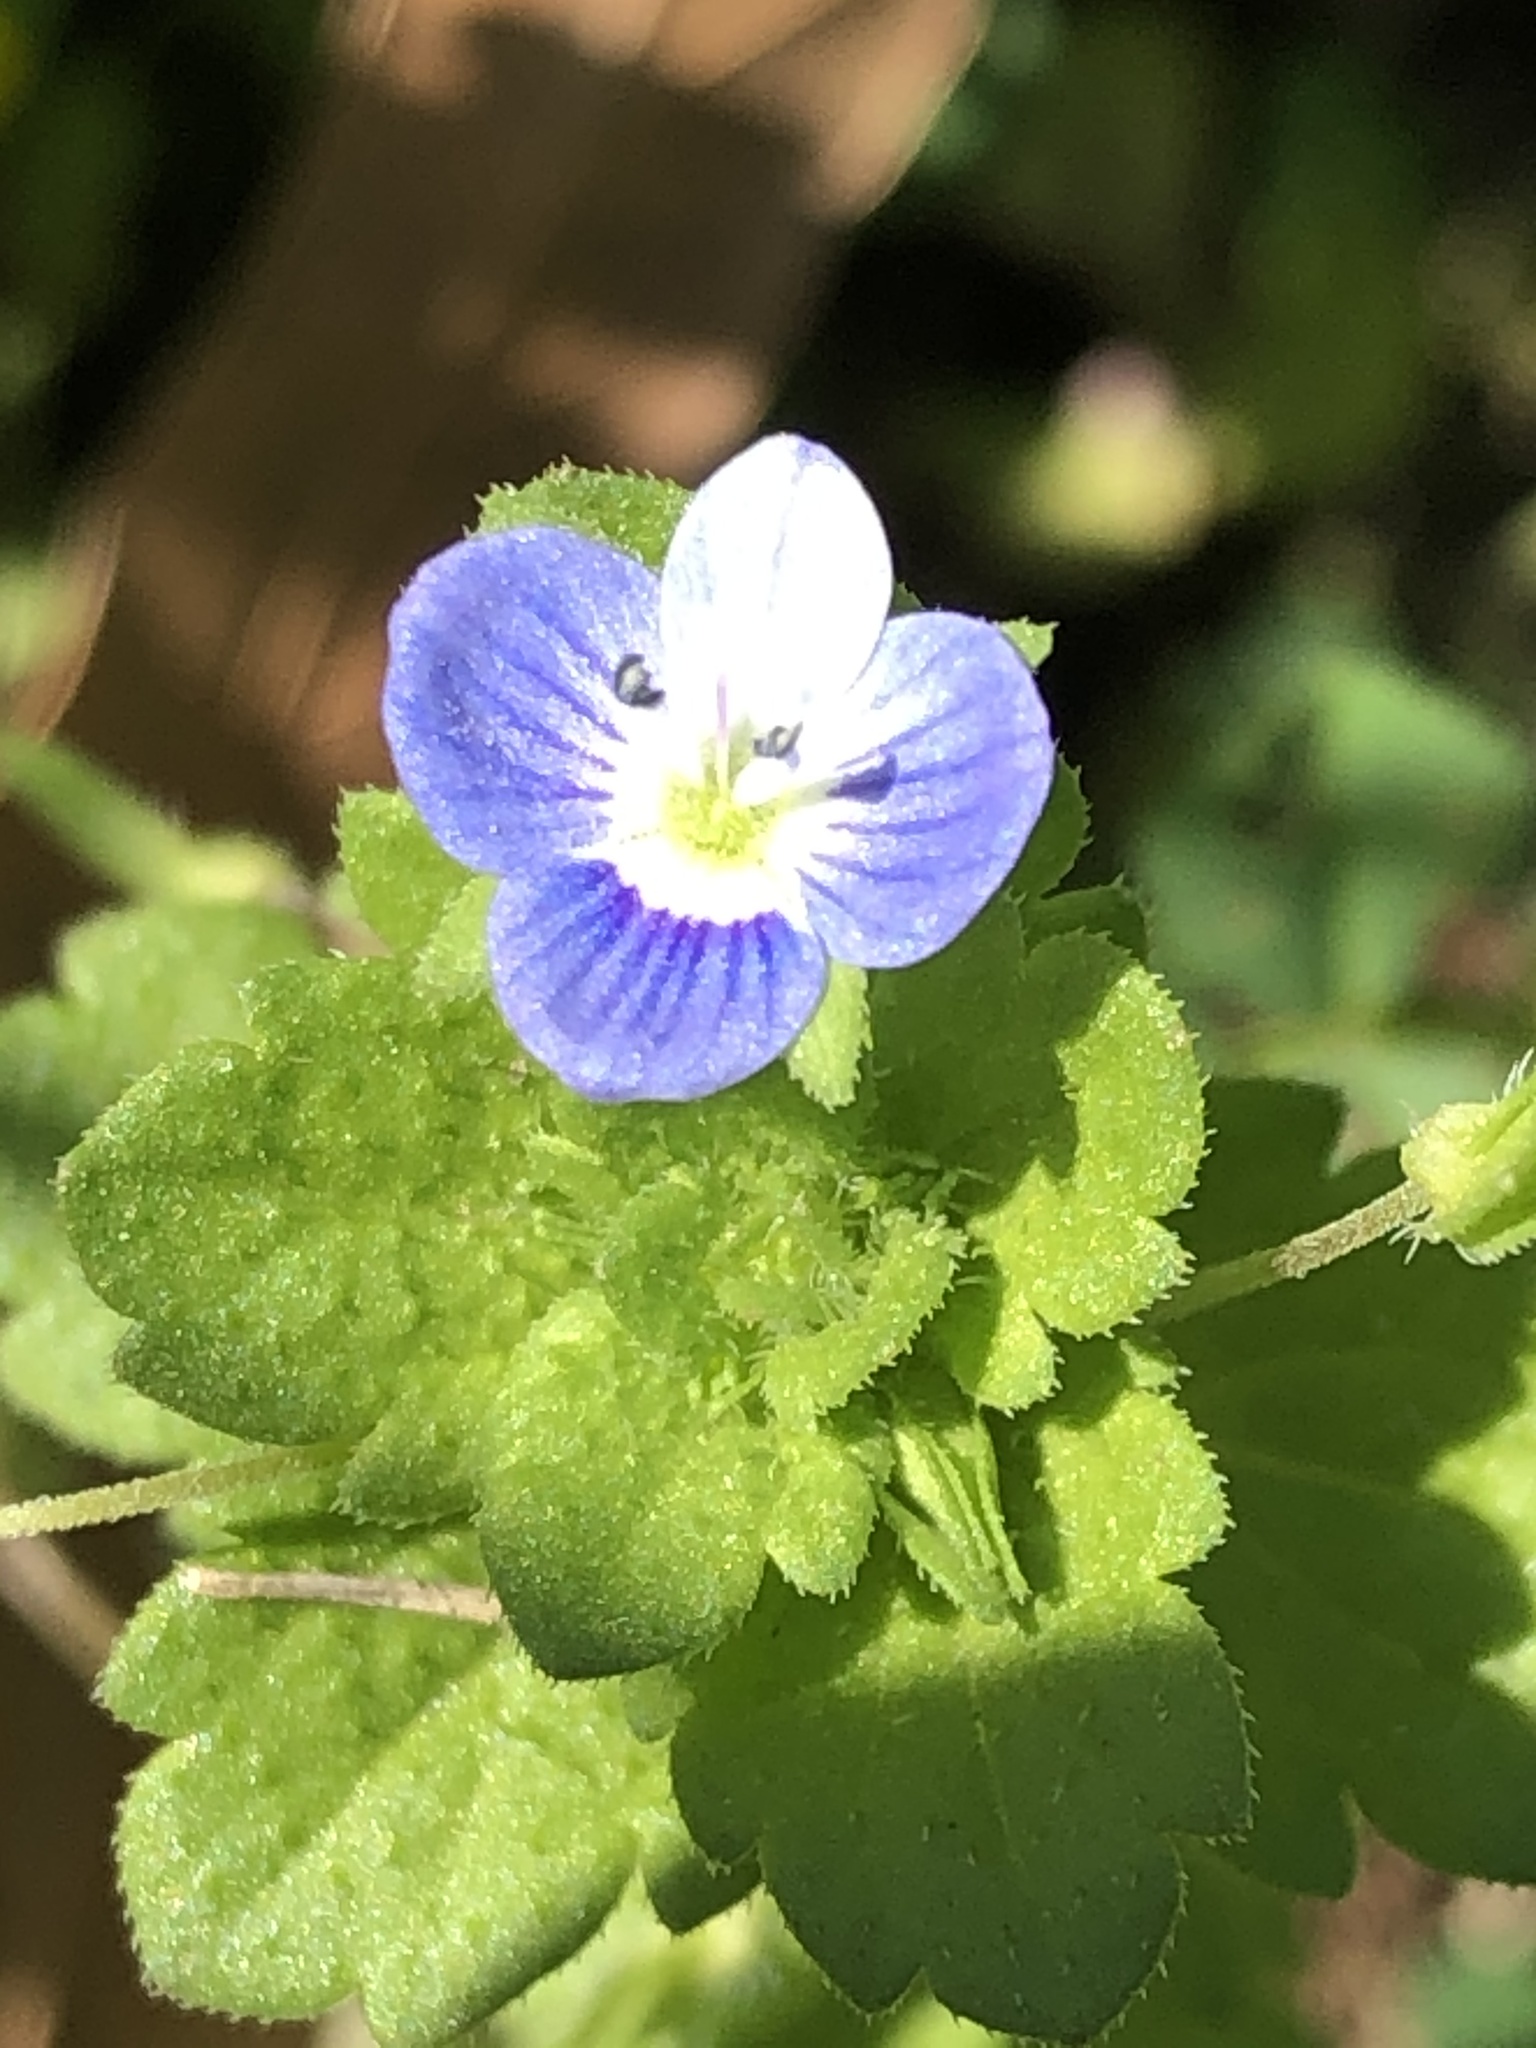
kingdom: Plantae
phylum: Tracheophyta
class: Magnoliopsida
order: Lamiales
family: Plantaginaceae
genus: Veronica
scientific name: Veronica persica
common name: Common field-speedwell
